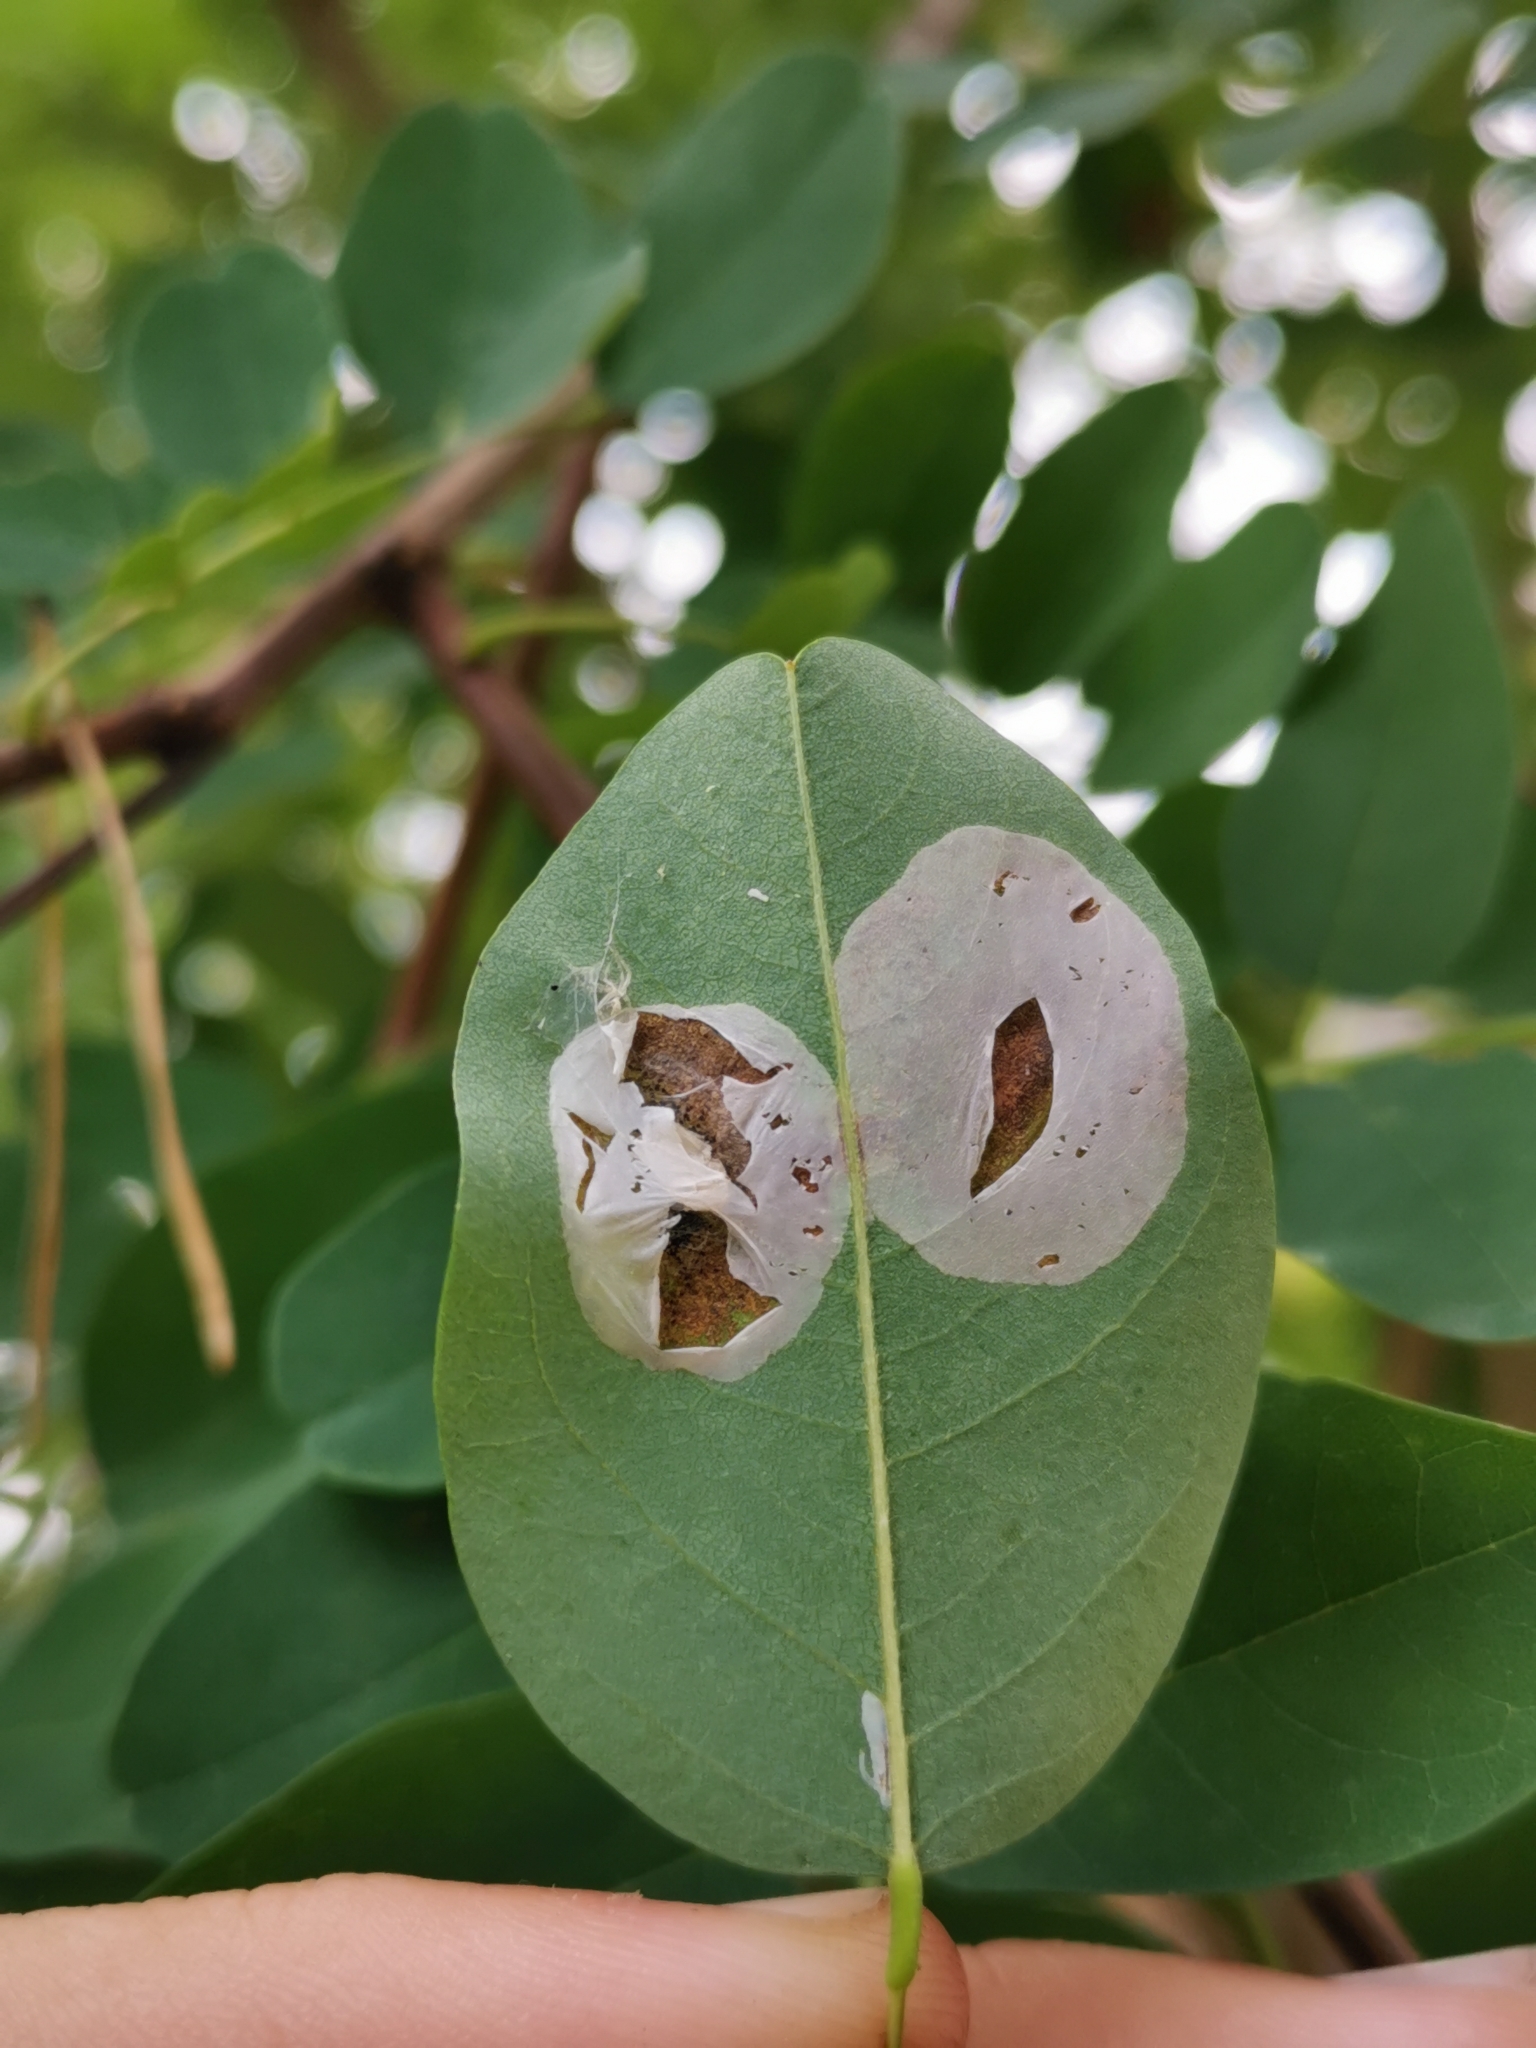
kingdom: Animalia
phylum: Arthropoda
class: Insecta
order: Lepidoptera
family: Gracillariidae
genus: Macrosaccus
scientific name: Macrosaccus robiniella
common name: Leaf blotch miner moth
